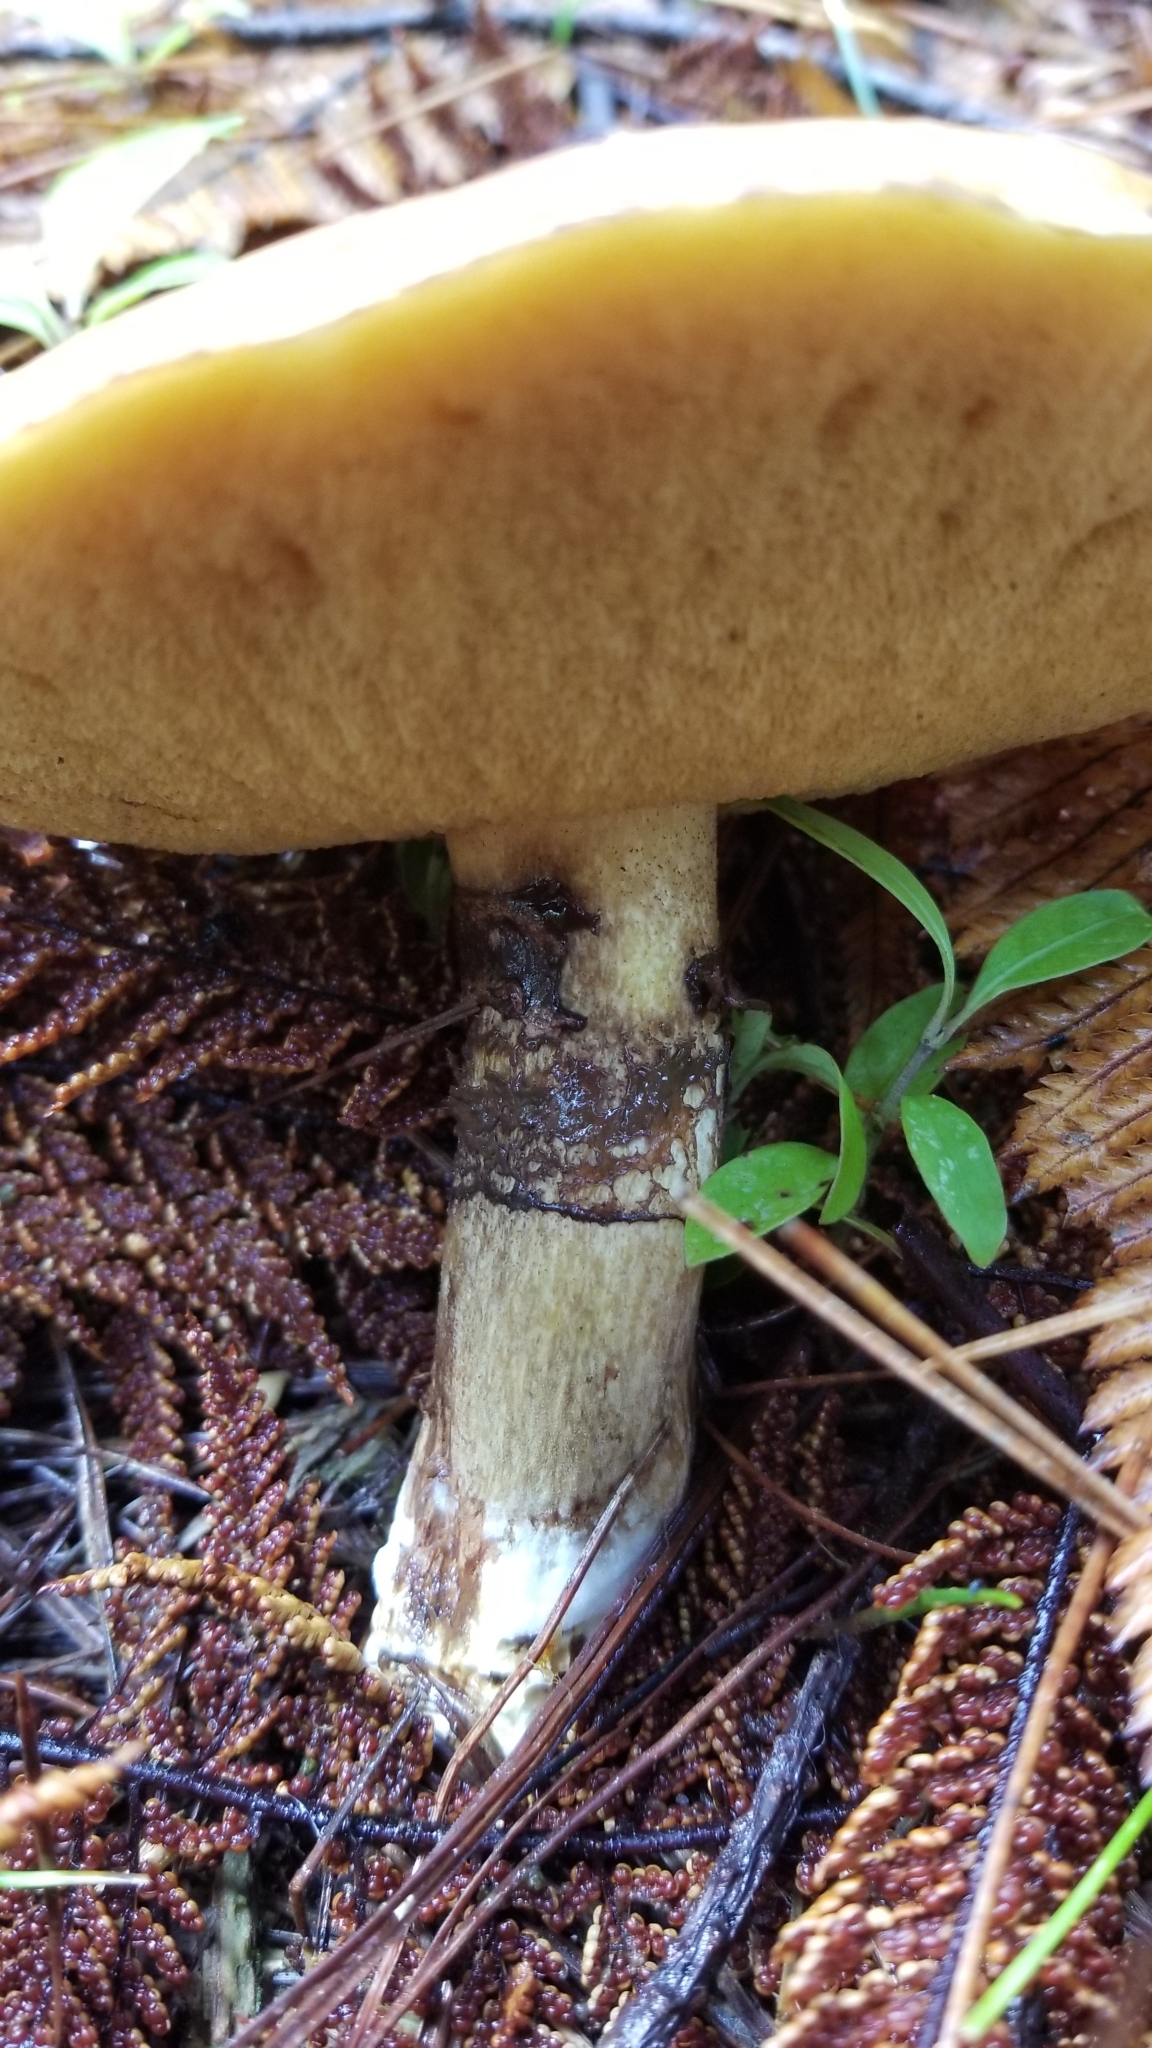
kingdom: Fungi
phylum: Basidiomycota
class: Agaricomycetes
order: Boletales
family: Suillaceae
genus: Suillus
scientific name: Suillus luteus
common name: Slippery jack
